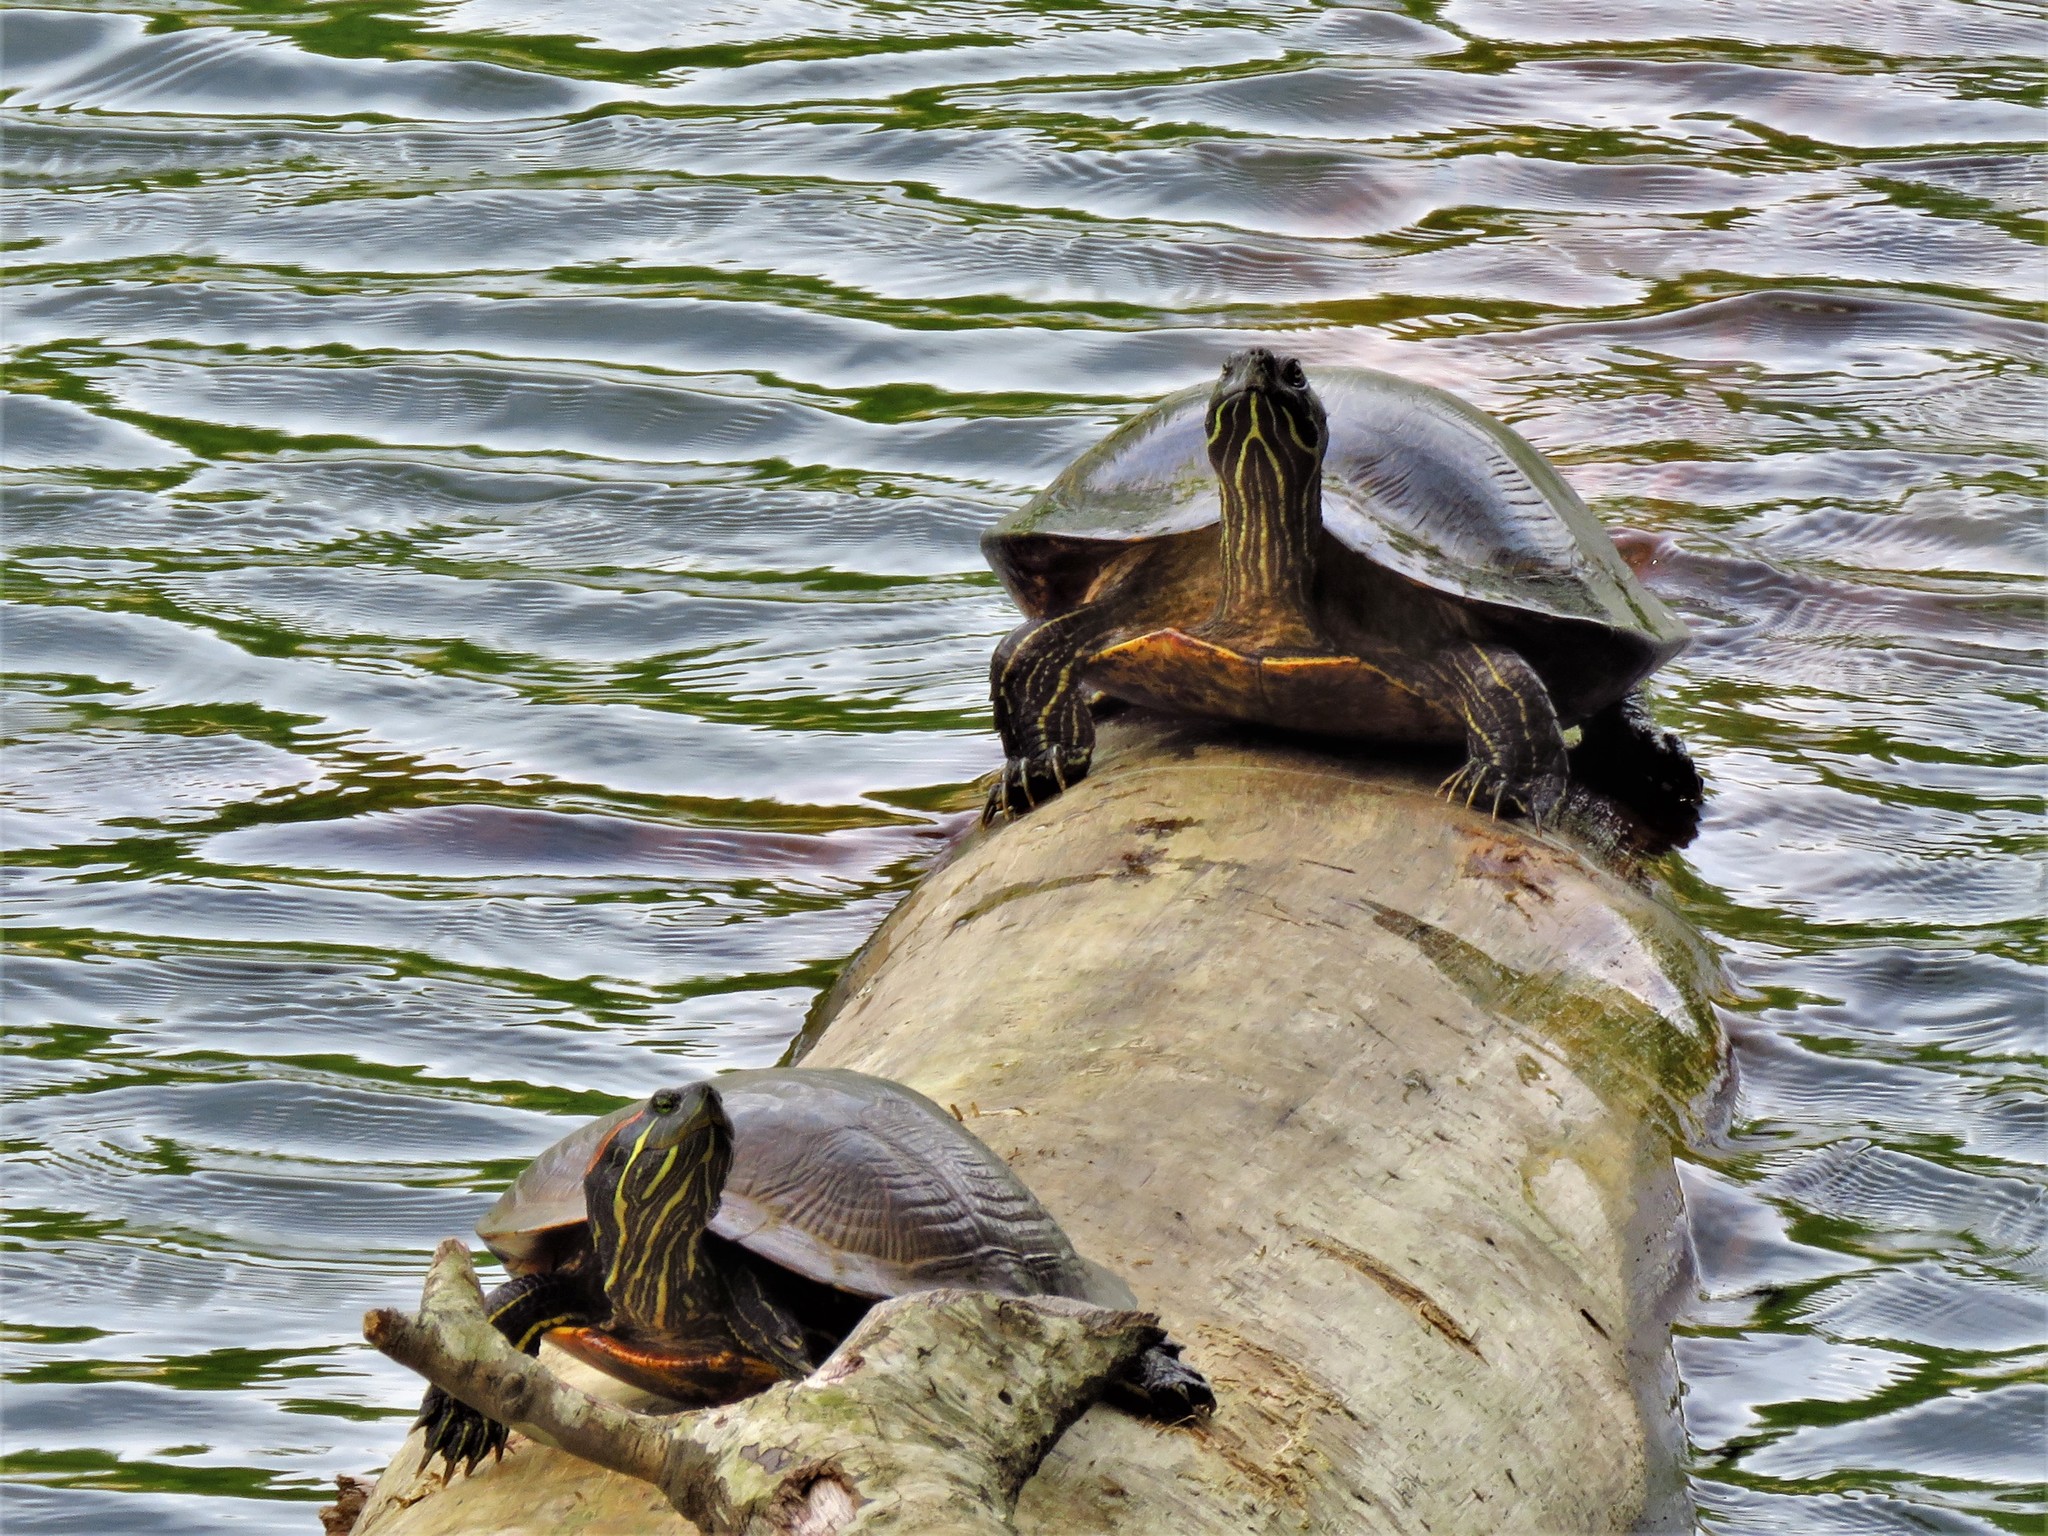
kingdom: Animalia
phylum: Chordata
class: Testudines
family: Emydidae
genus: Trachemys
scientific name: Trachemys scripta
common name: Slider
